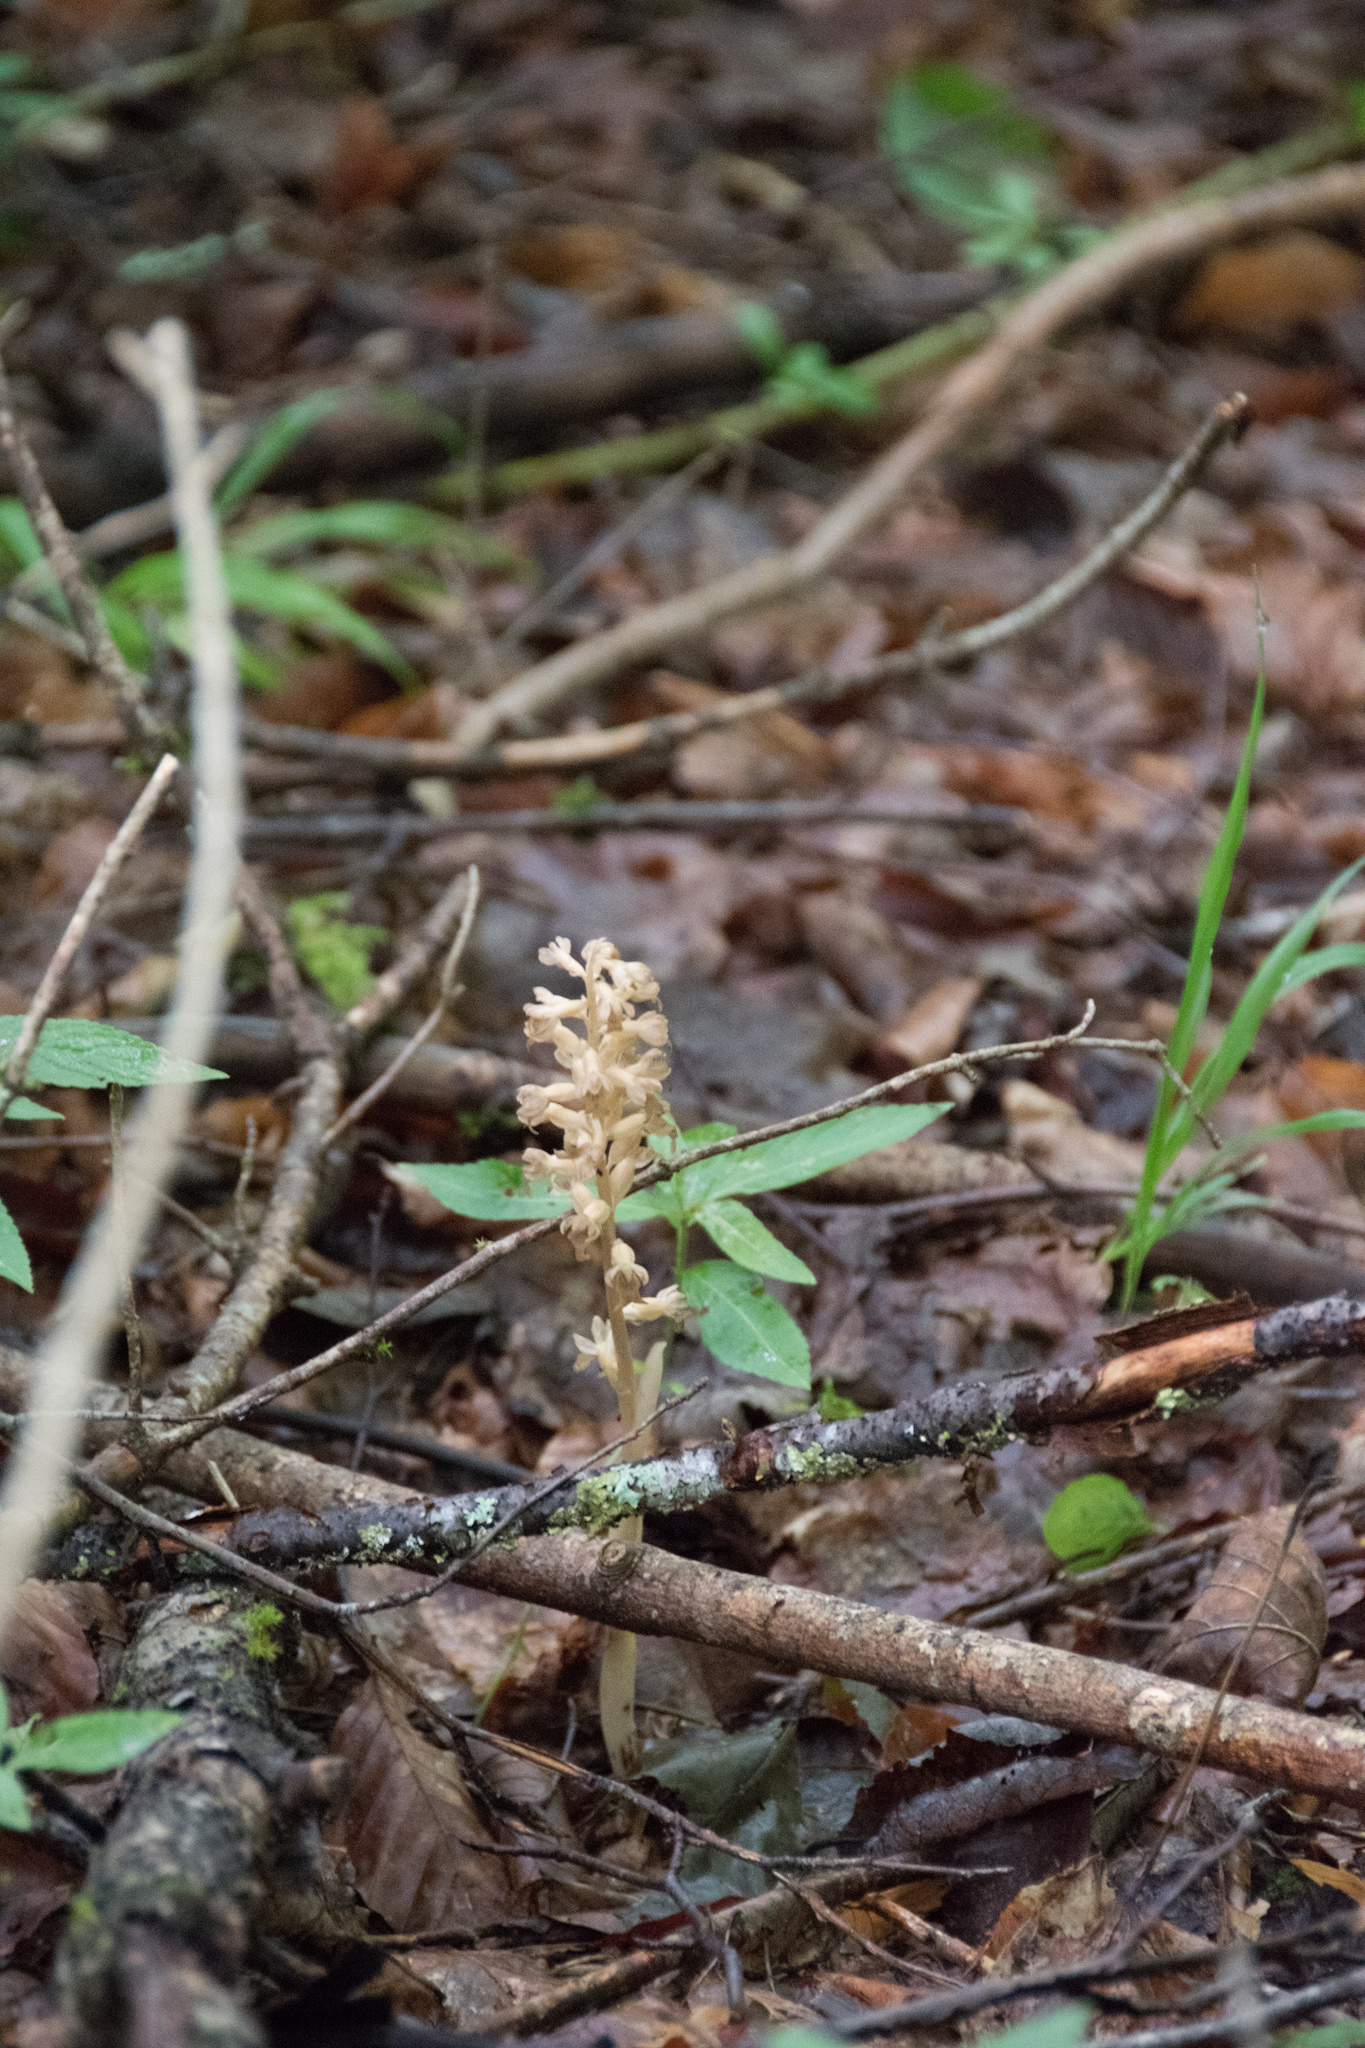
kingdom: Plantae
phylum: Tracheophyta
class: Liliopsida
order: Asparagales
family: Orchidaceae
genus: Neottia
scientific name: Neottia nidus-avis
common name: Bird's-nest orchid
